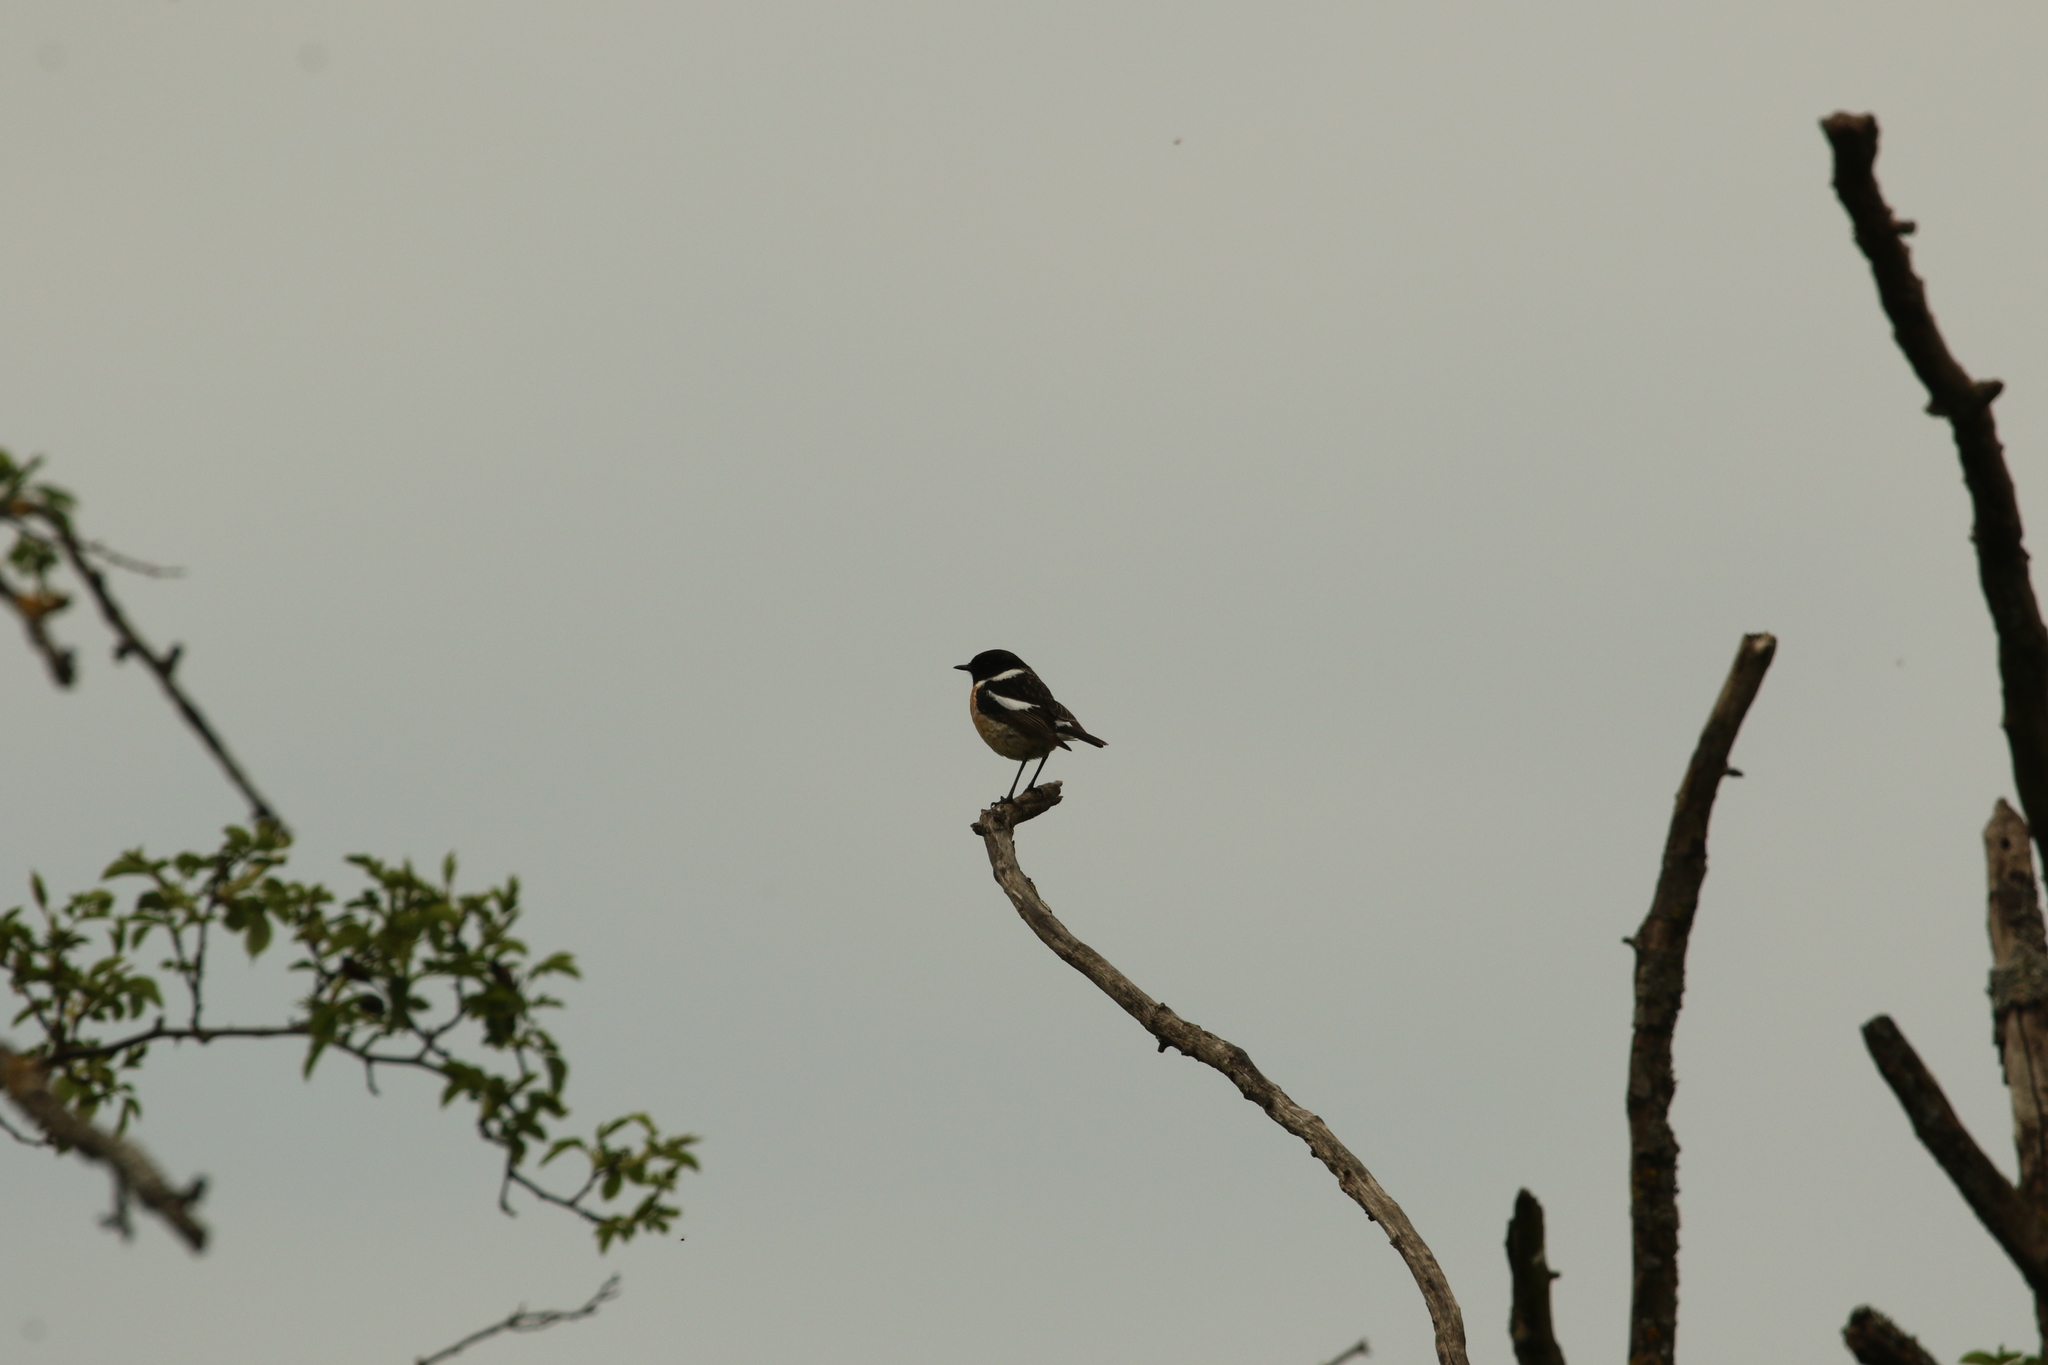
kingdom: Animalia
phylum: Chordata
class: Aves
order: Passeriformes
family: Muscicapidae
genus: Saxicola
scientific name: Saxicola rubicola
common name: European stonechat
